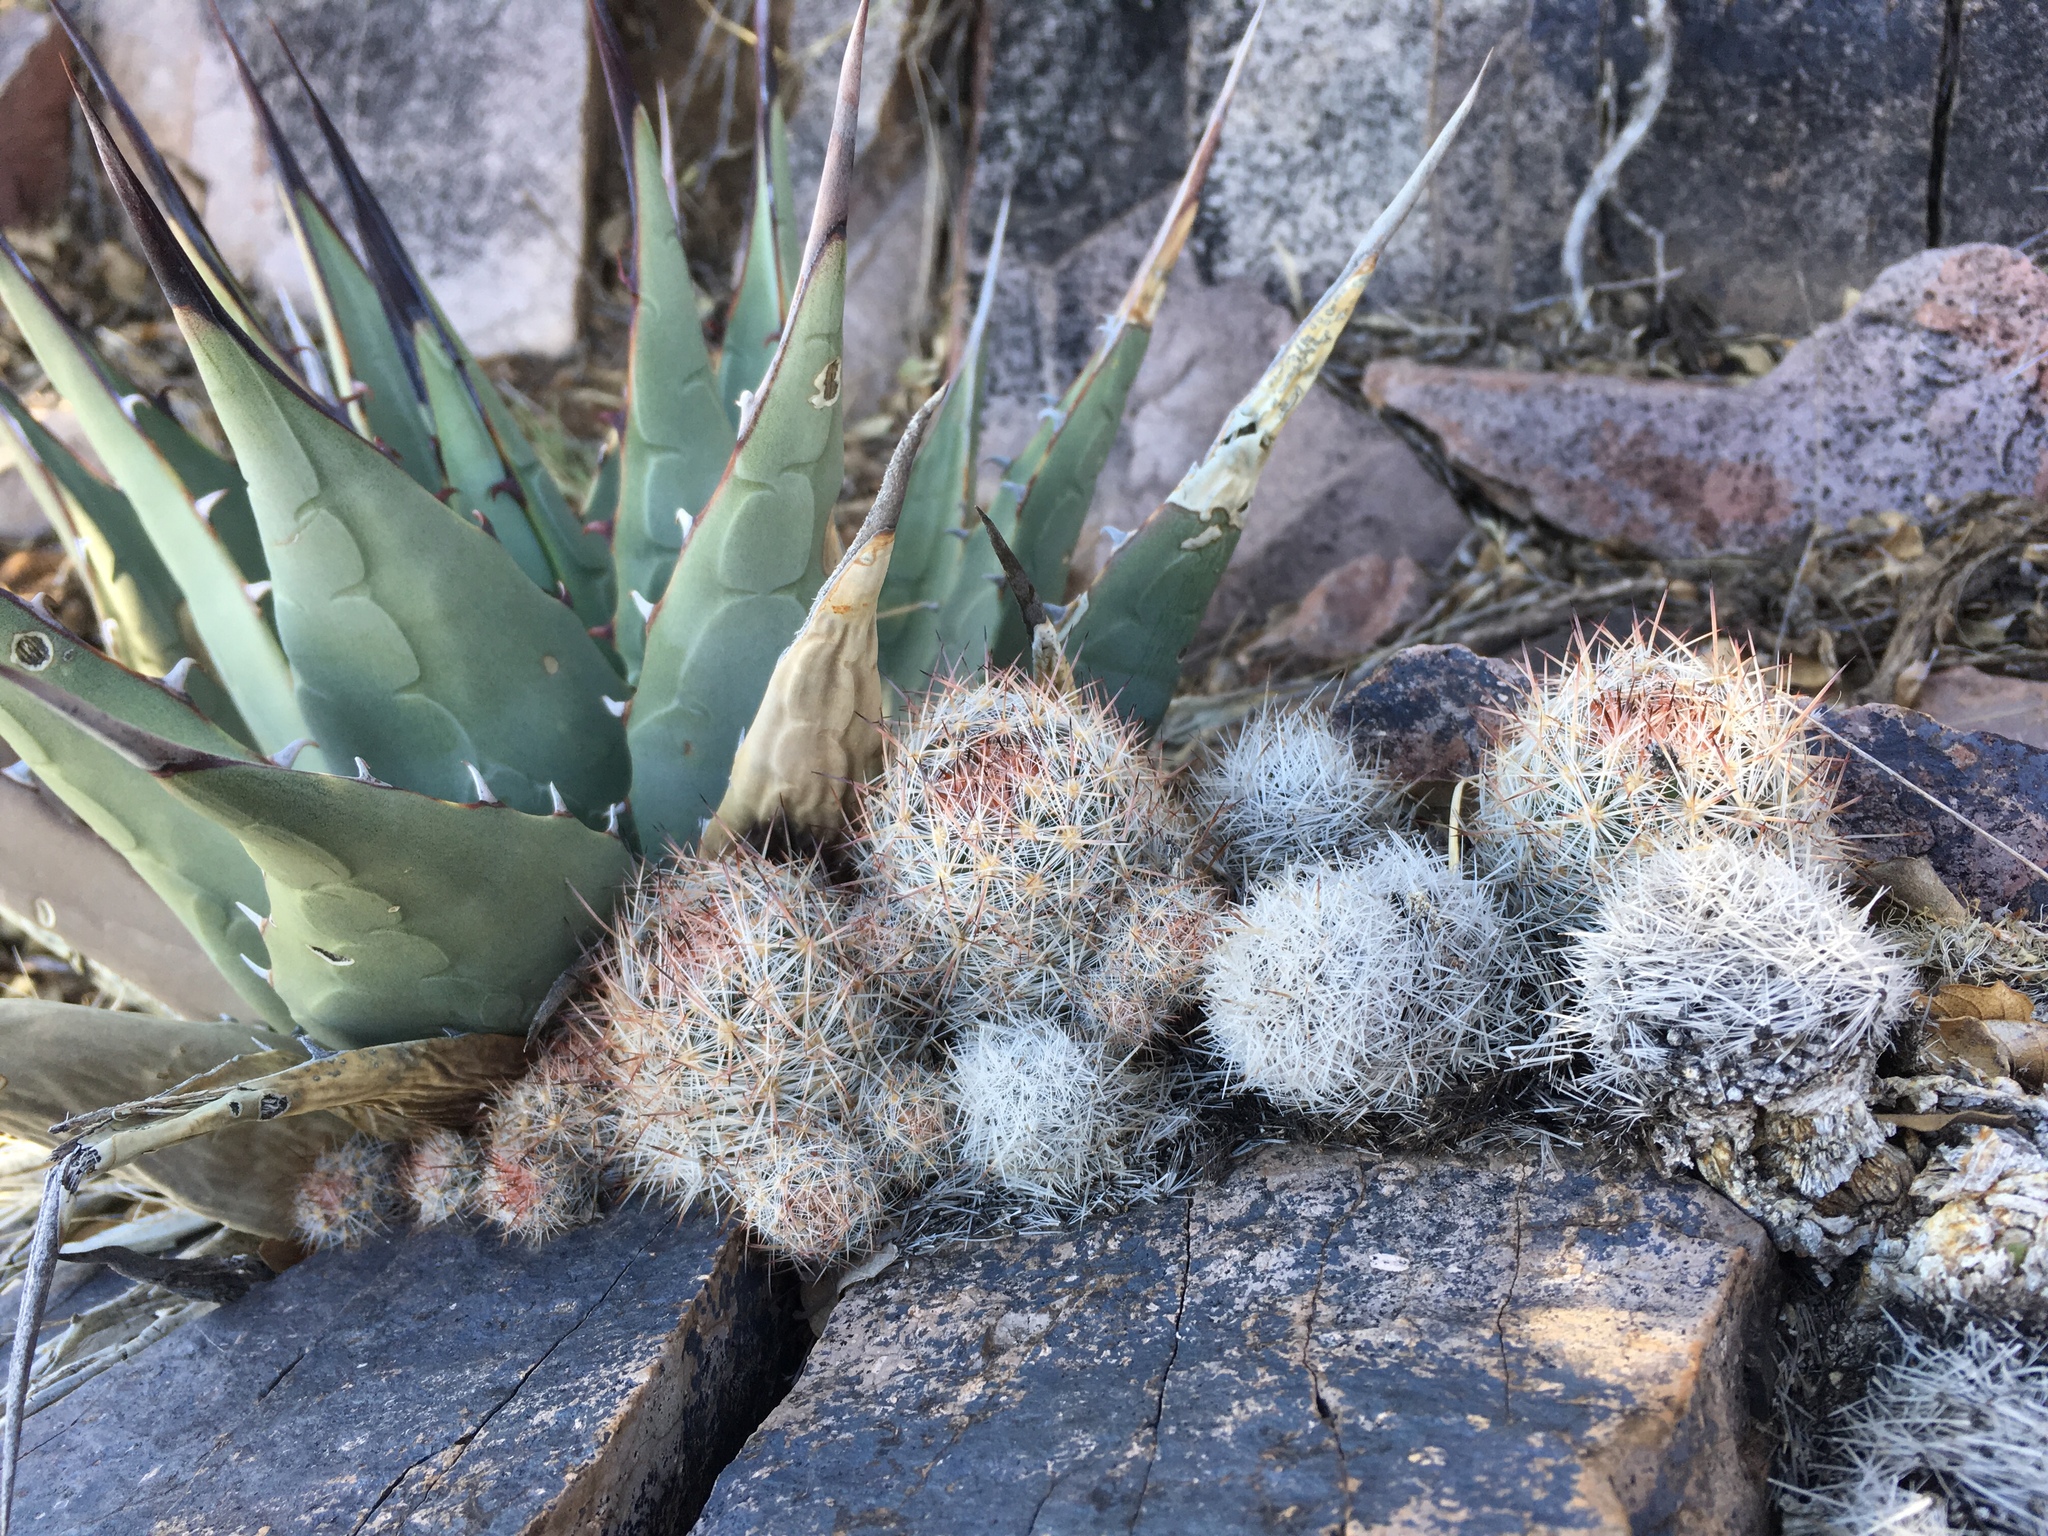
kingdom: Plantae
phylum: Tracheophyta
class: Magnoliopsida
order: Caryophyllales
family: Cactaceae
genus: Pelecyphora
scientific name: Pelecyphora sneedii
